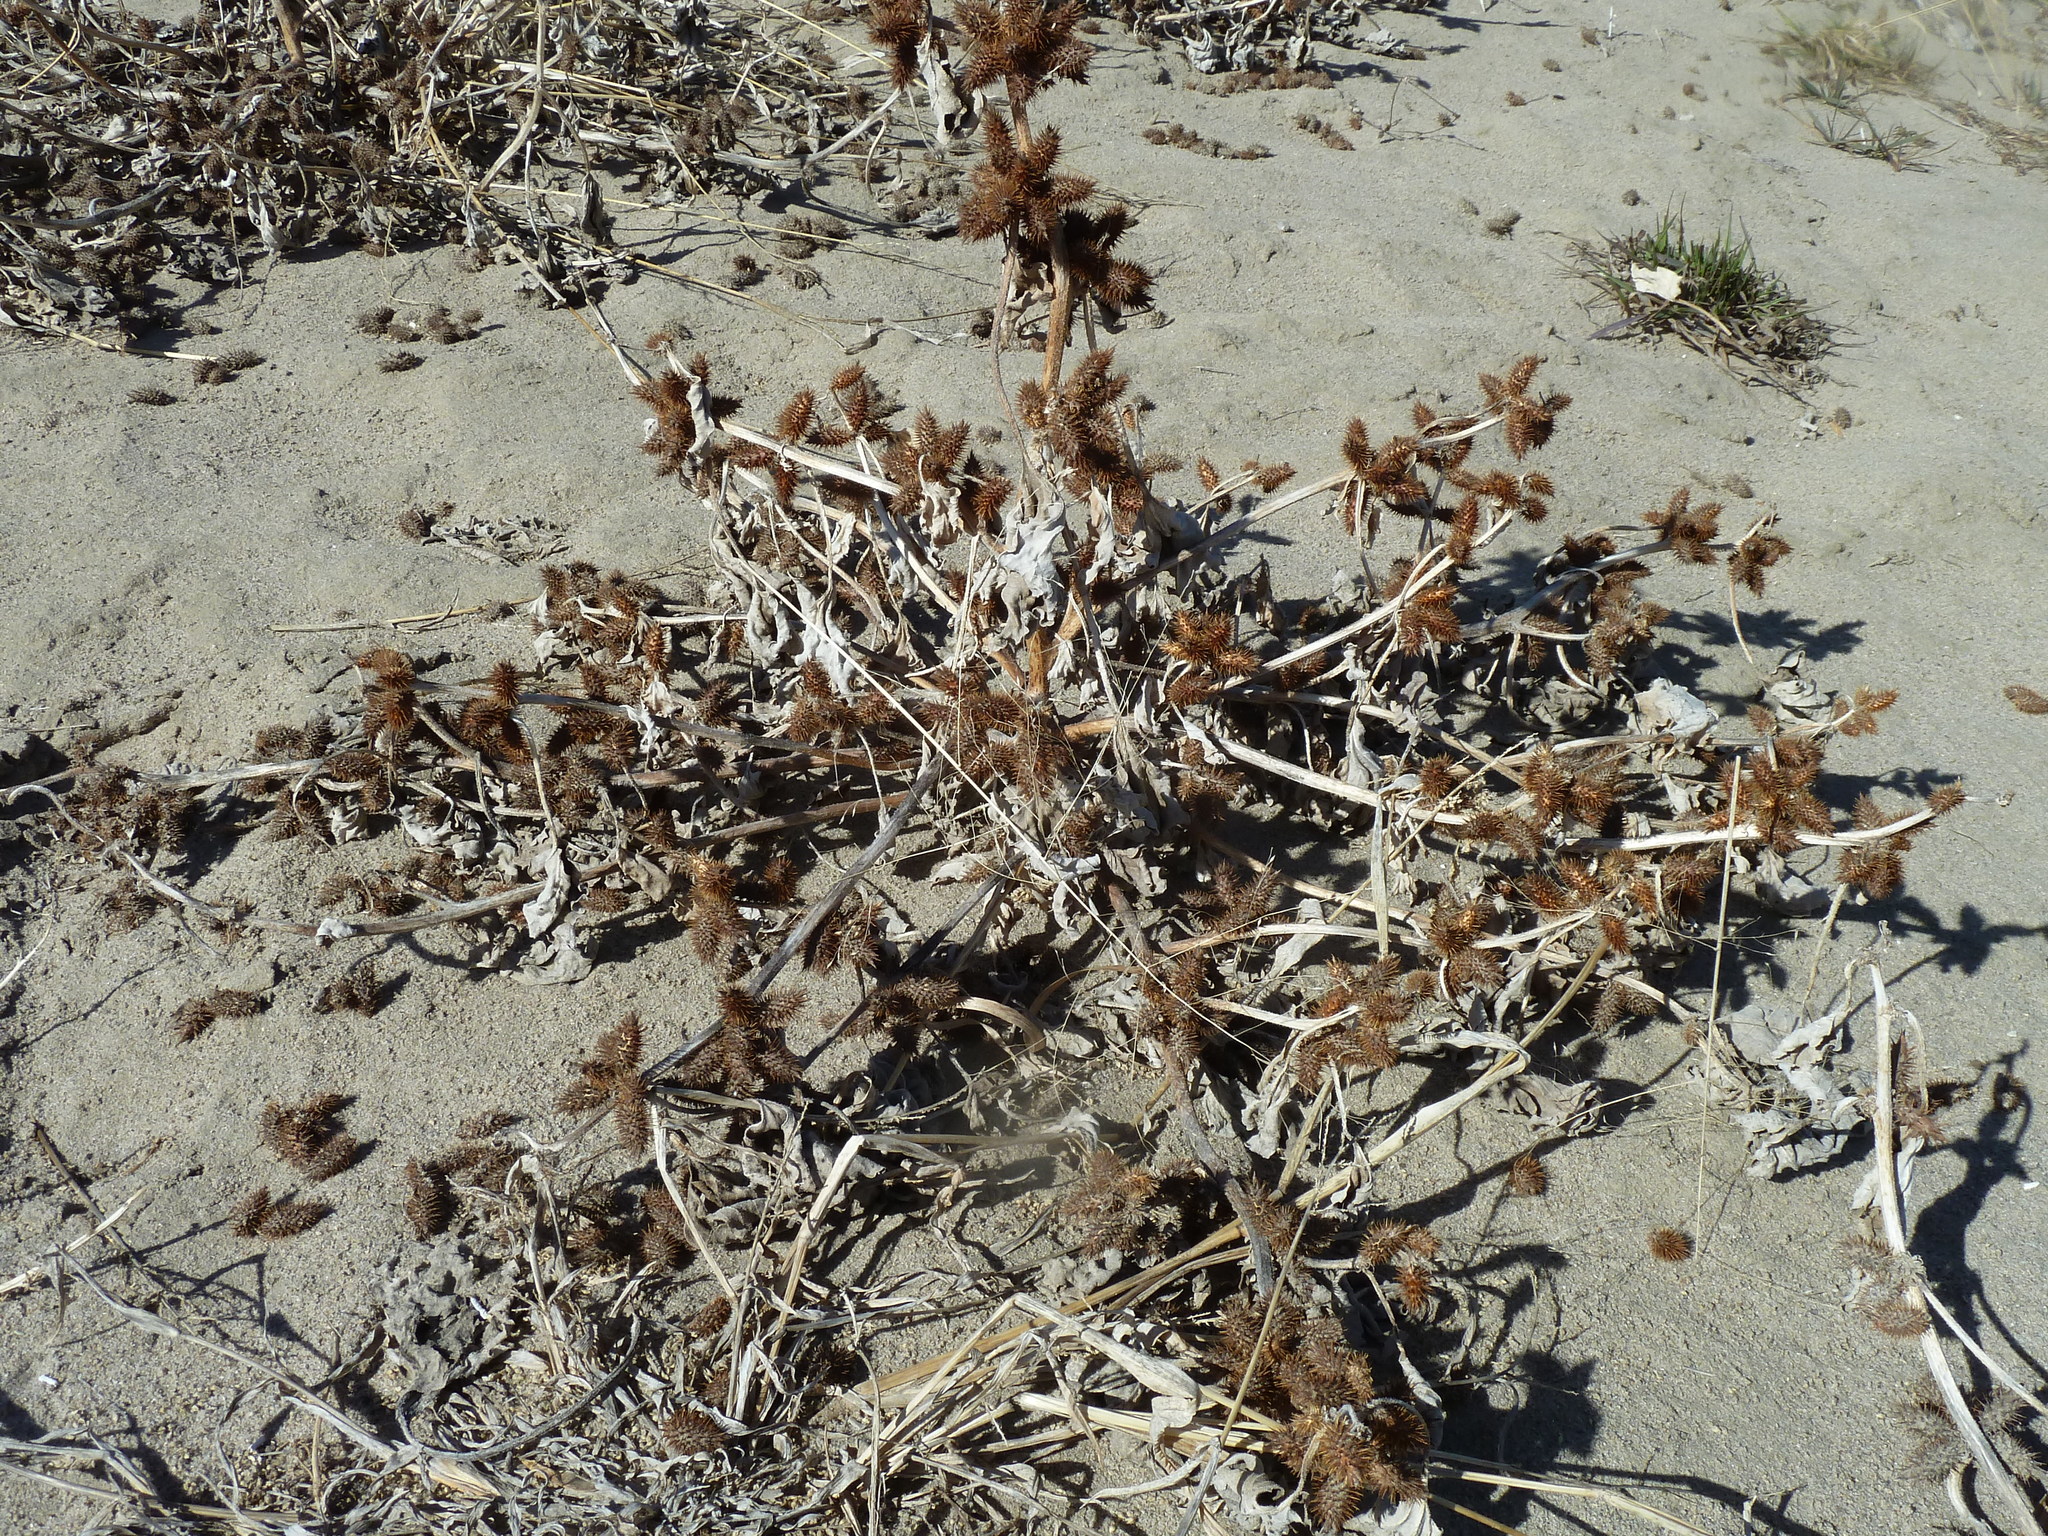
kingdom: Plantae
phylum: Tracheophyta
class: Magnoliopsida
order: Asterales
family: Asteraceae
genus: Xanthium
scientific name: Xanthium strumarium
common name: Rough cocklebur
